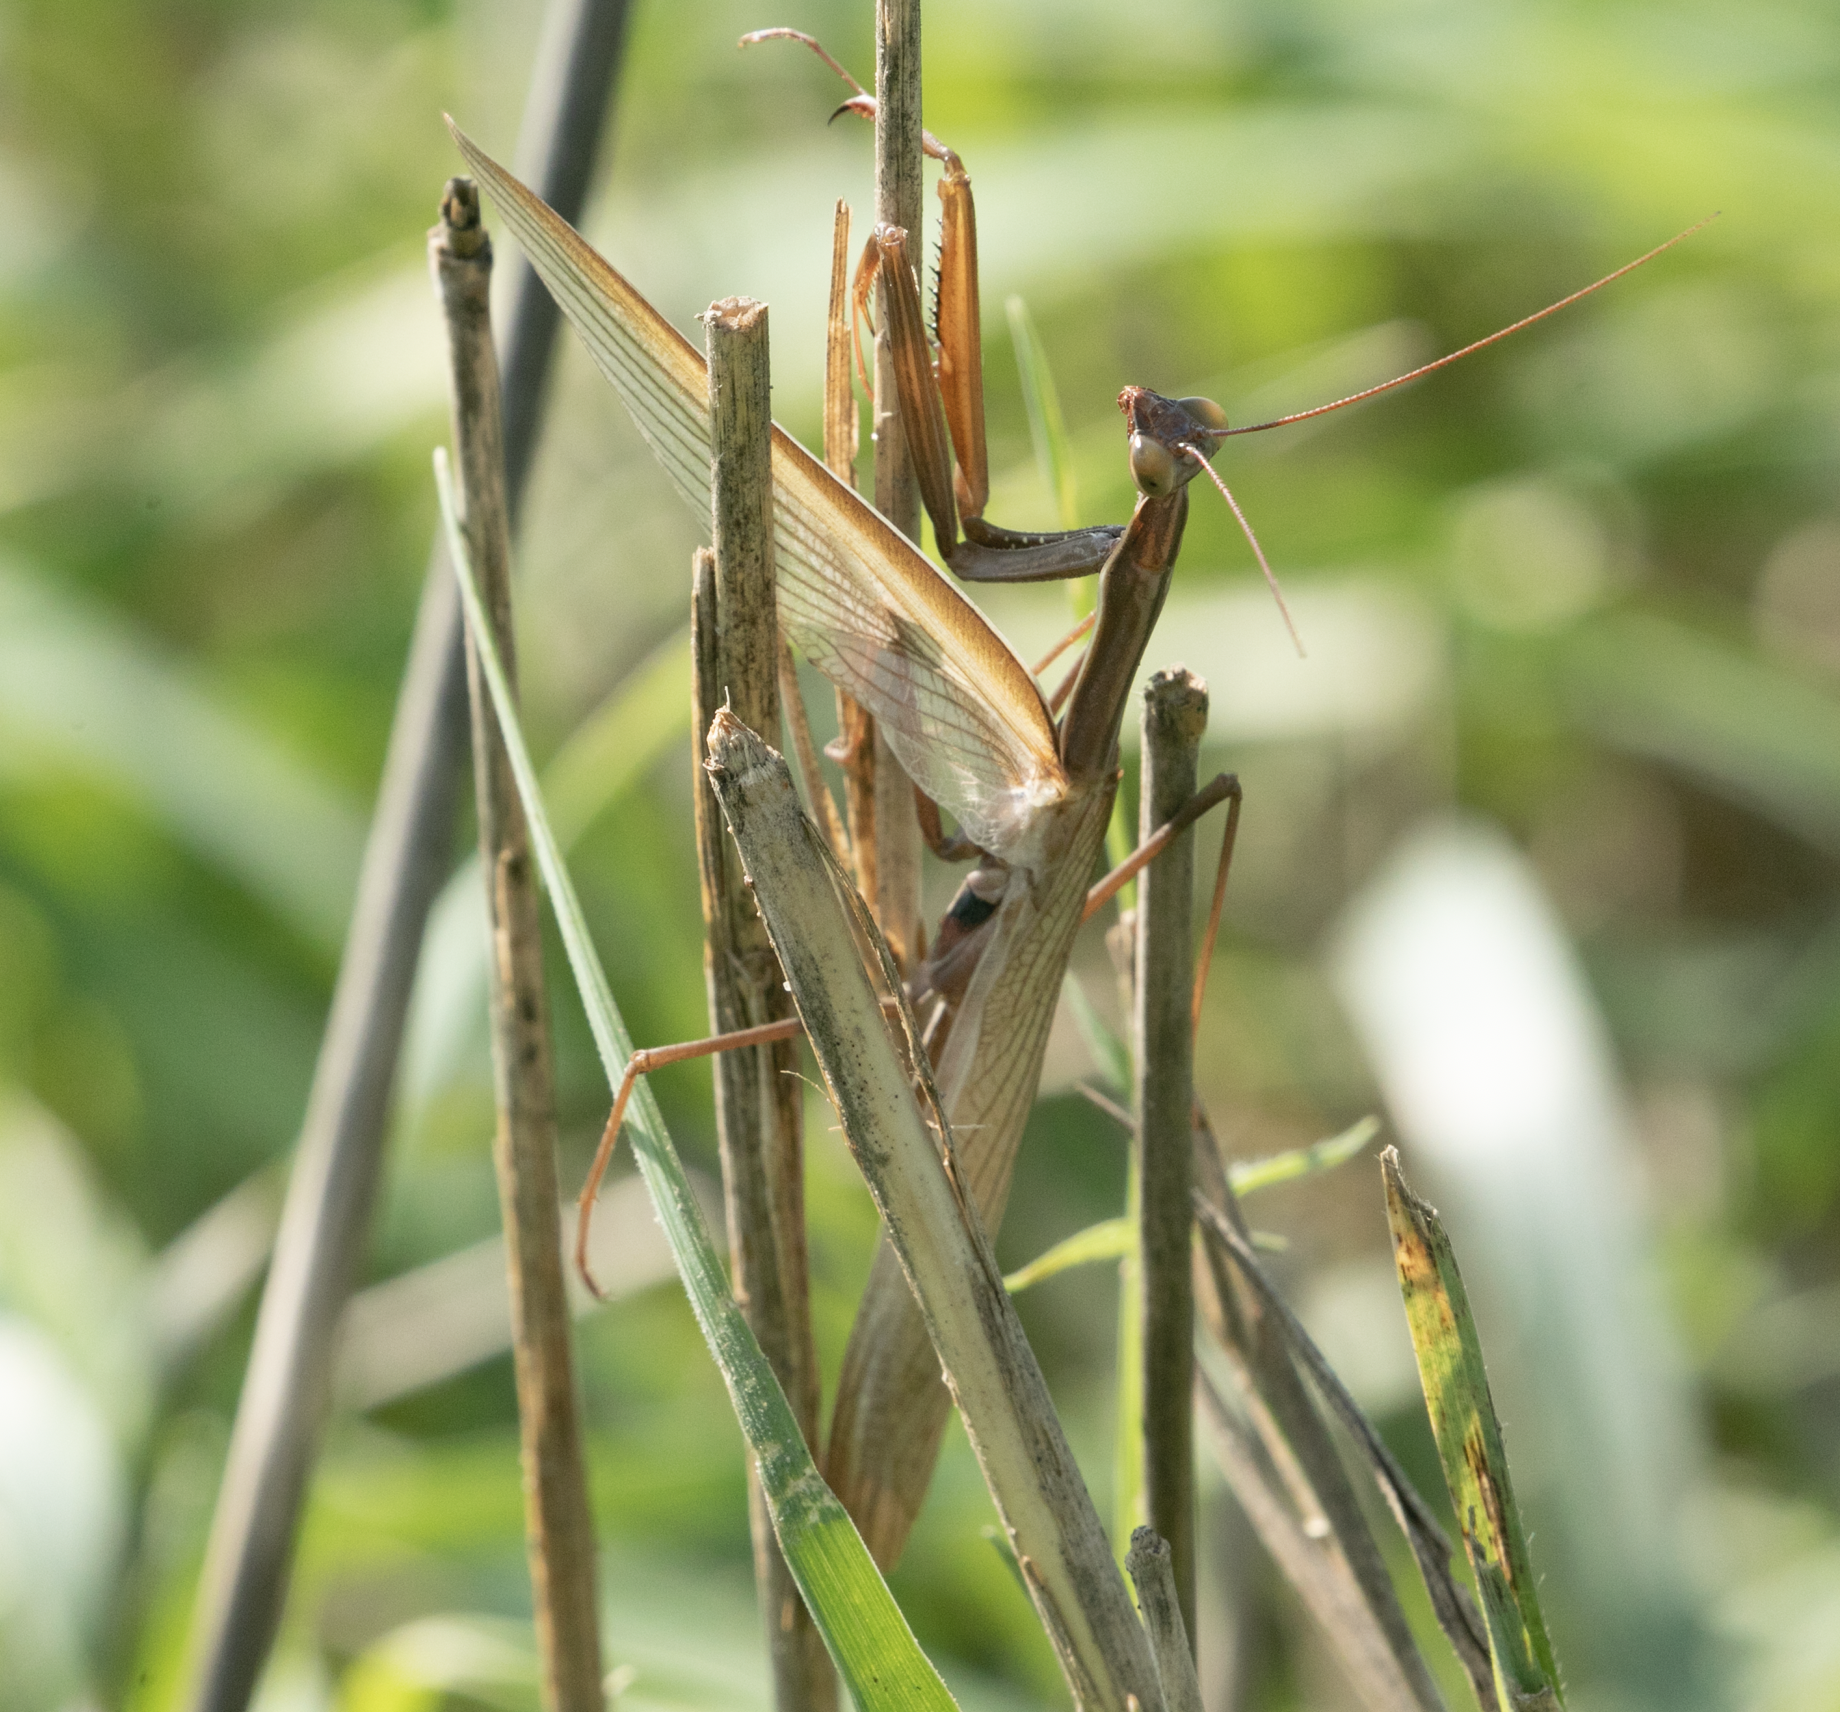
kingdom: Animalia
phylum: Arthropoda
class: Insecta
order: Mantodea
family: Mantidae
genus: Mantis
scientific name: Mantis religiosa
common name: Praying mantis
